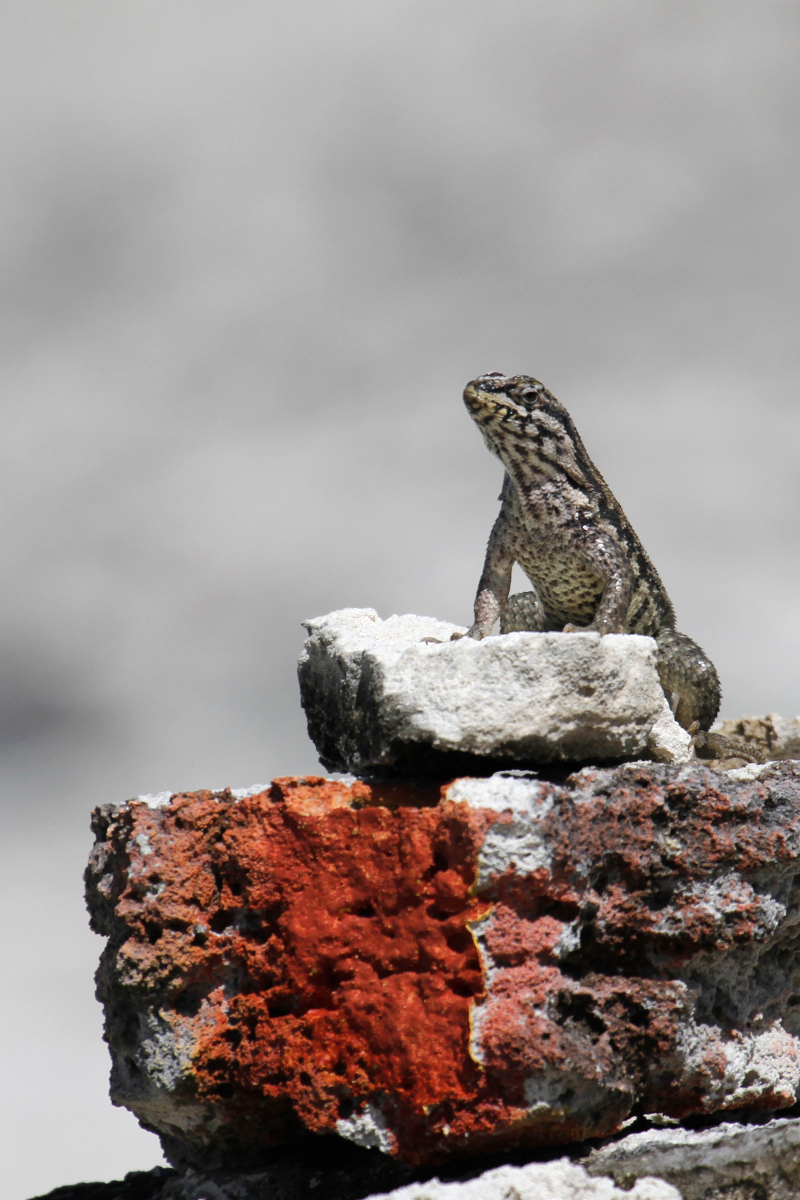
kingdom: Animalia
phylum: Chordata
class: Squamata
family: Leiocephalidae
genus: Leiocephalus
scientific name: Leiocephalus carinatus
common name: Northern curly-tailed lizard
